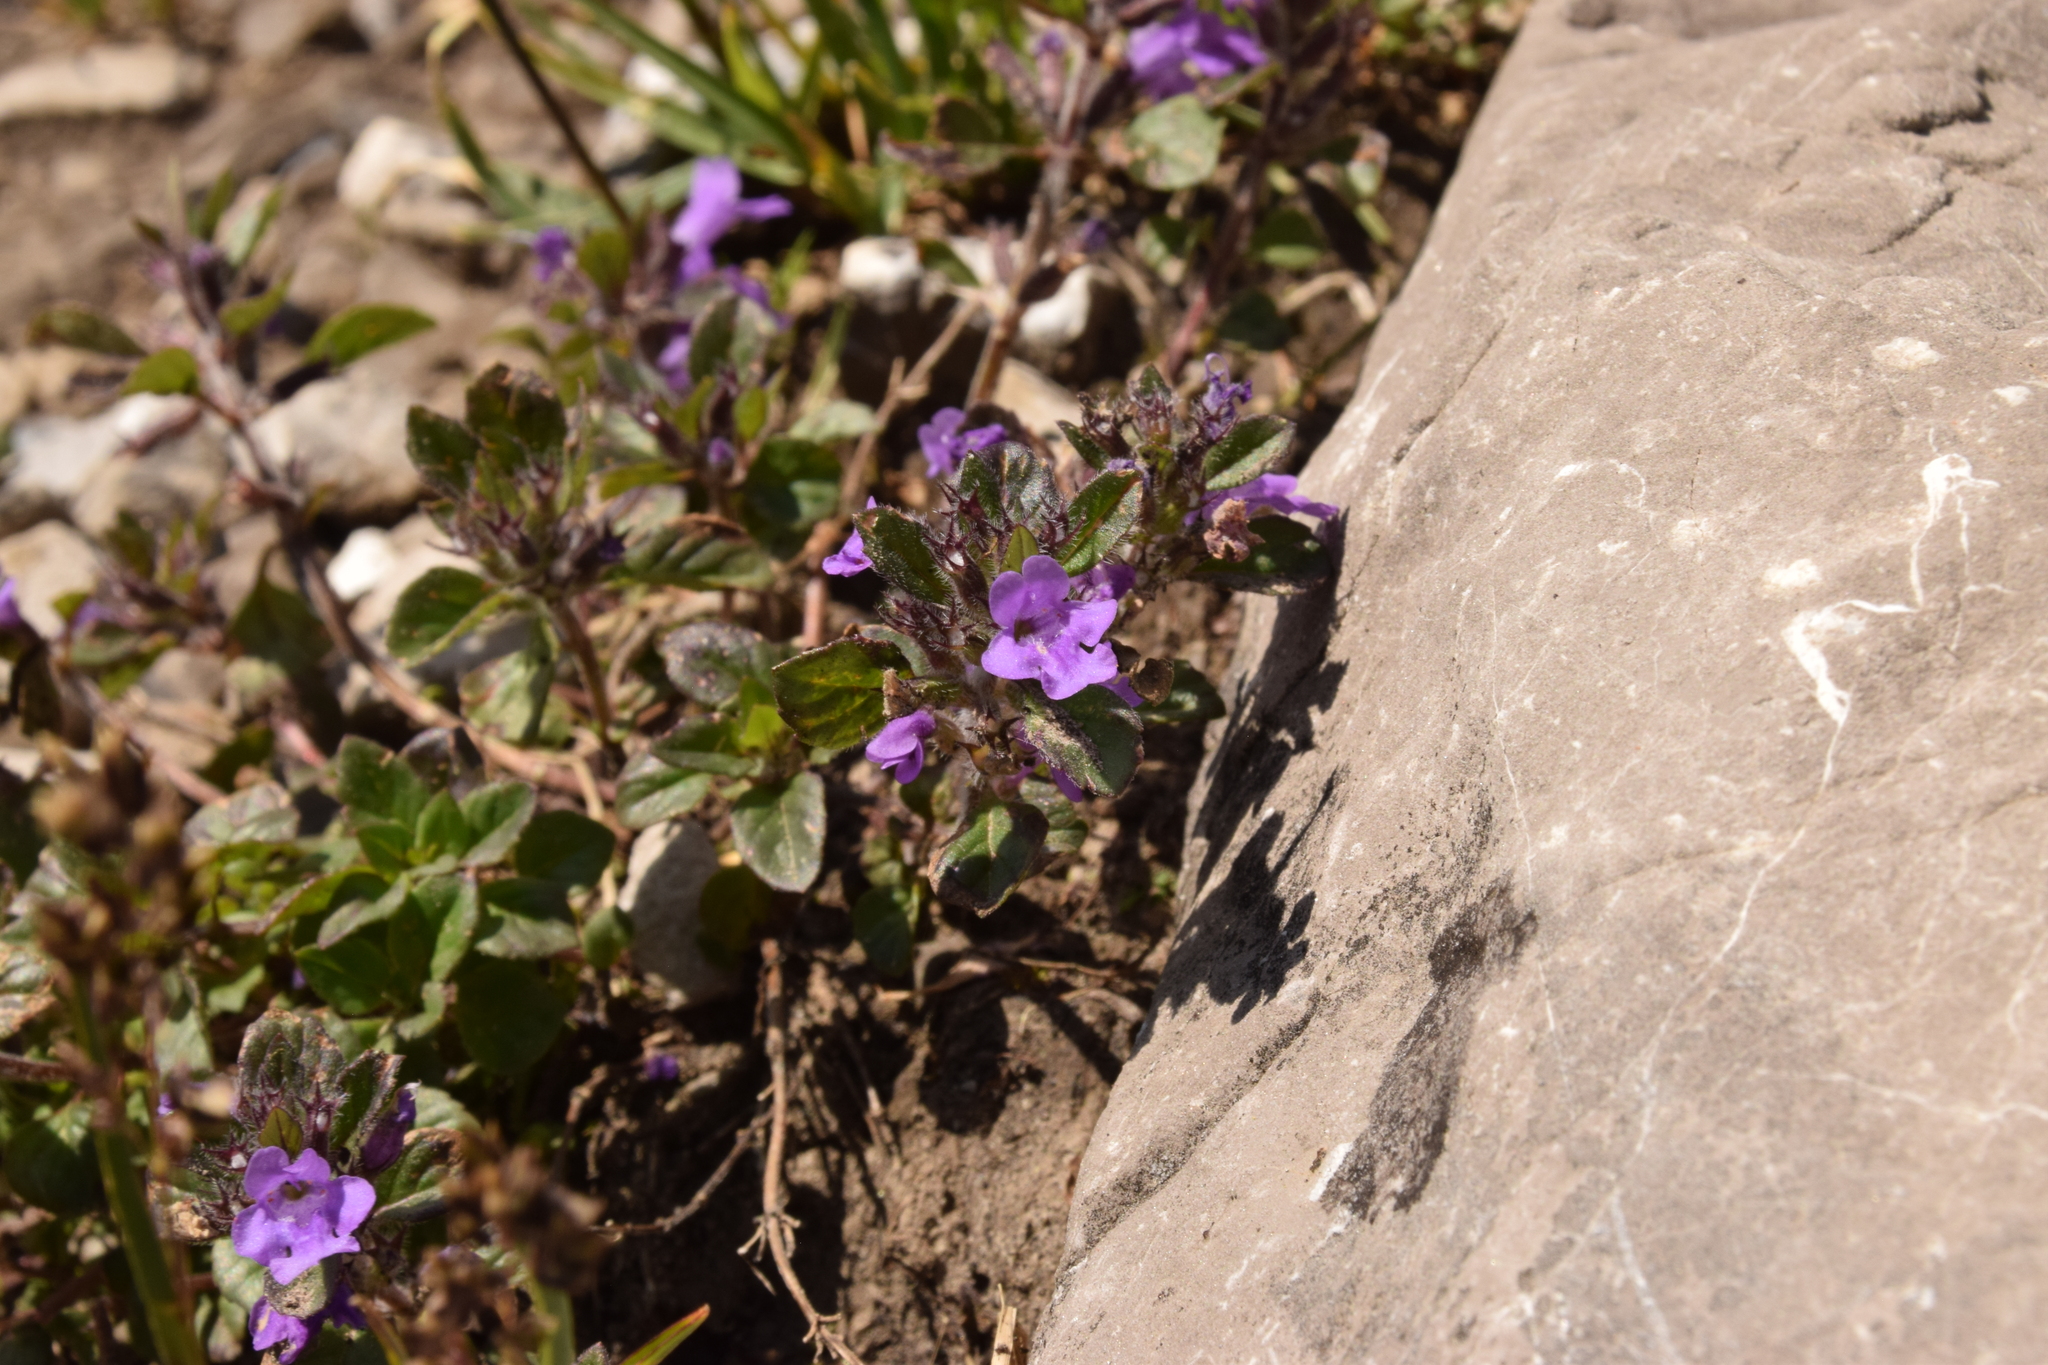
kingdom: Plantae
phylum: Tracheophyta
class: Magnoliopsida
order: Lamiales
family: Lamiaceae
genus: Clinopodium
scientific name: Clinopodium alpinum
